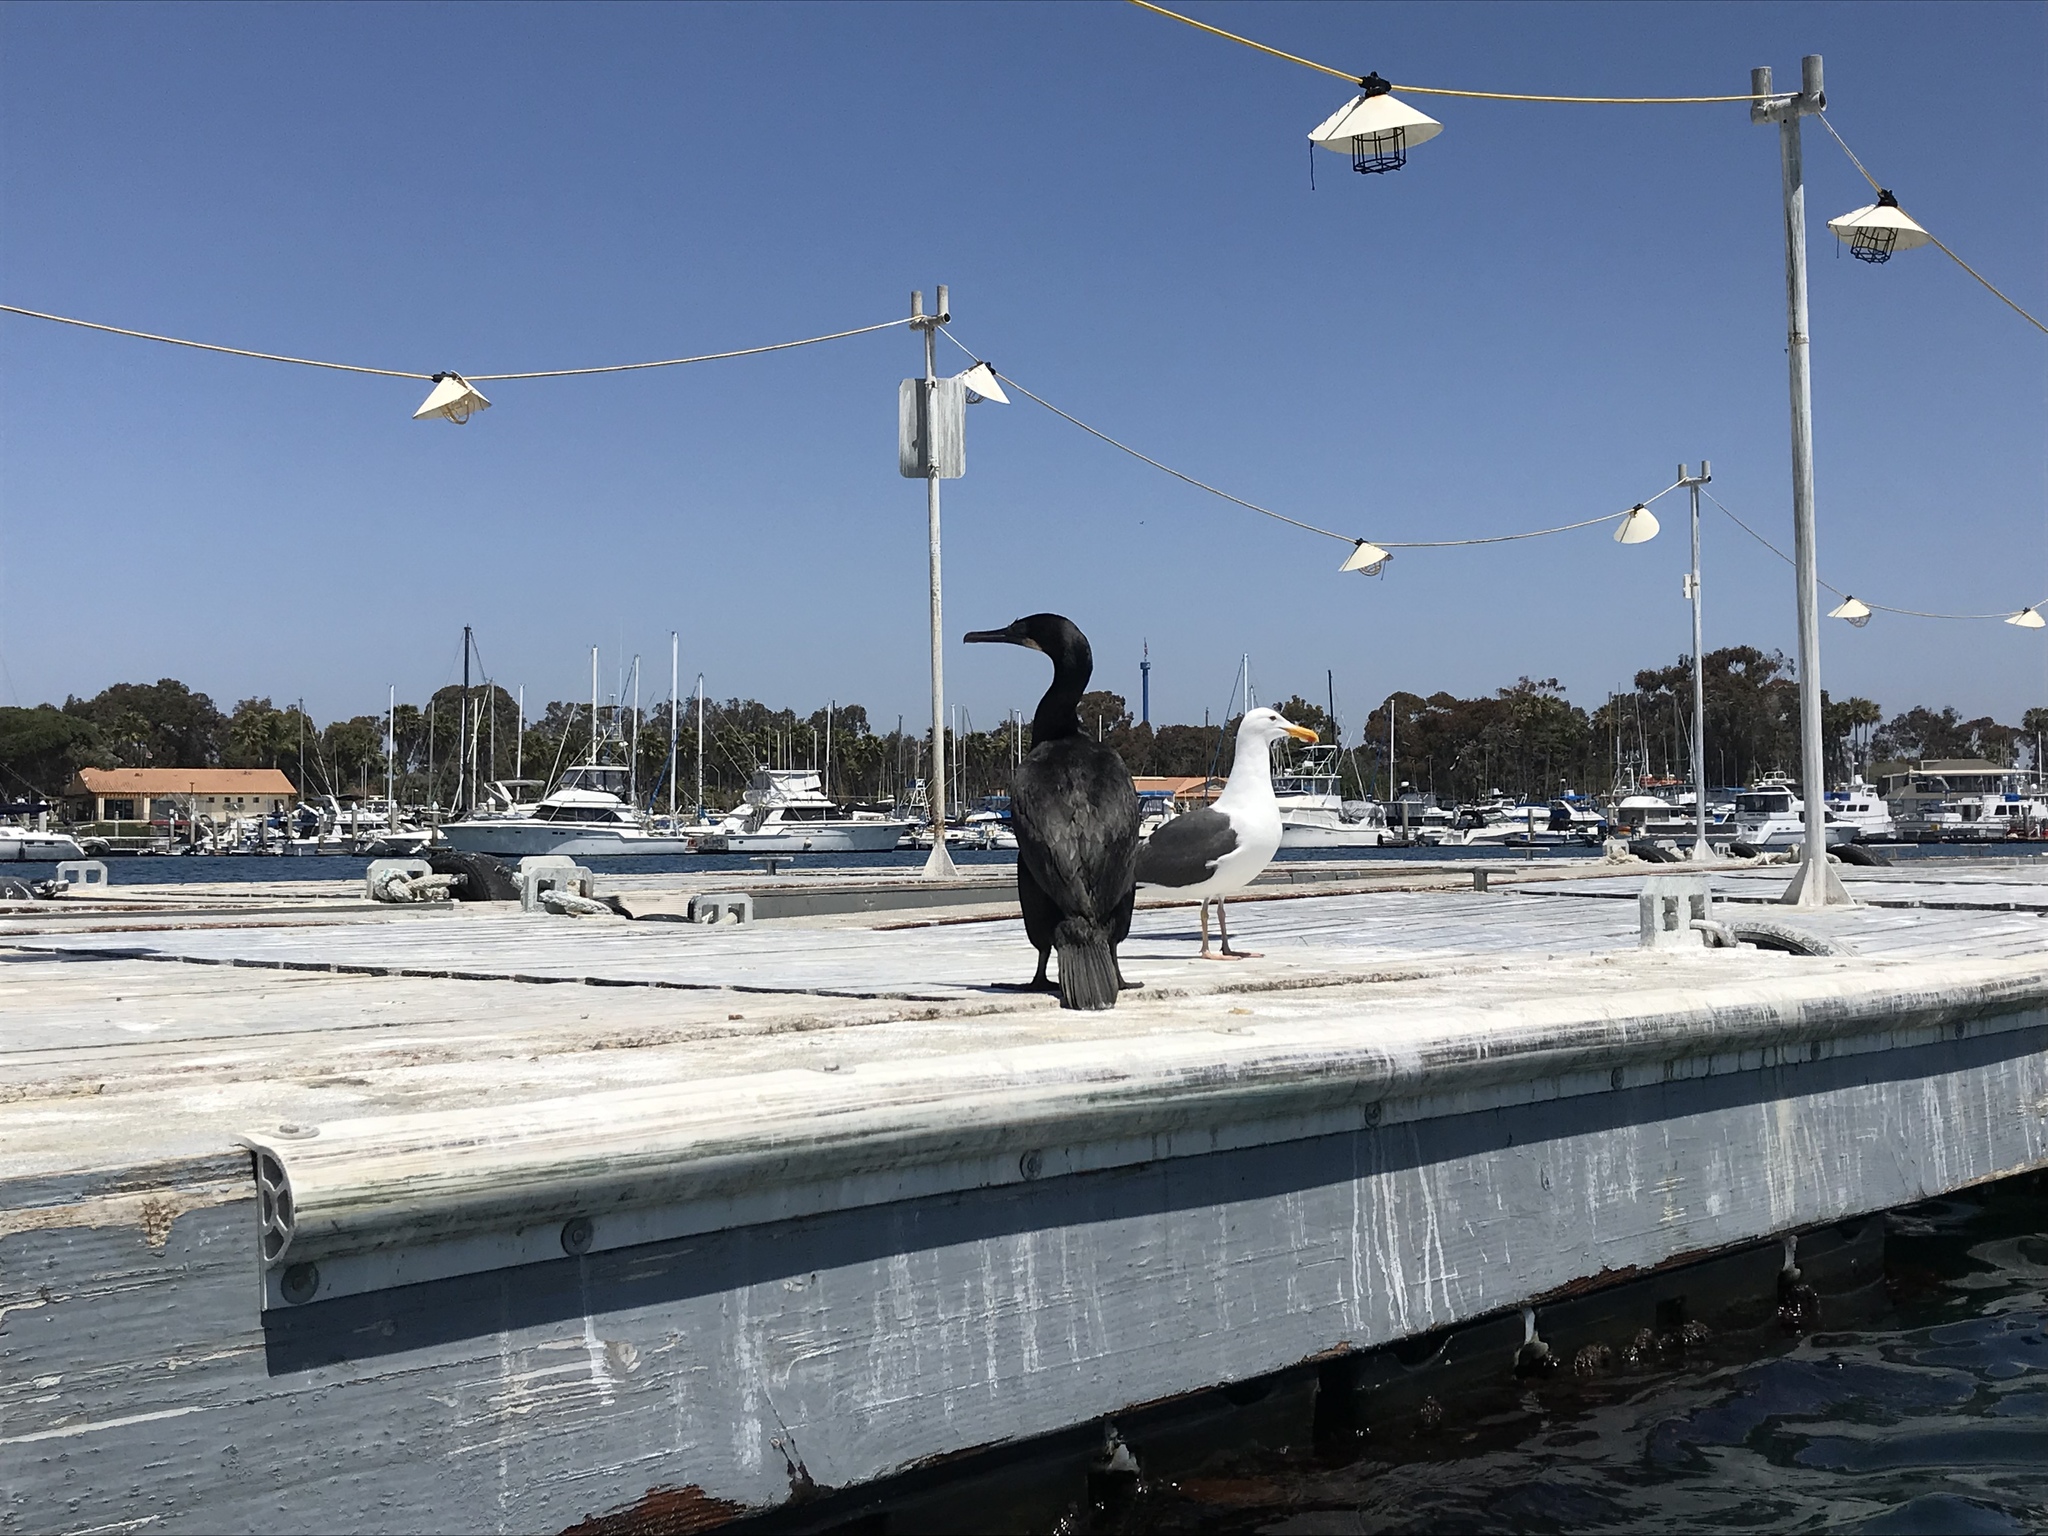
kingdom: Animalia
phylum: Chordata
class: Aves
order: Suliformes
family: Phalacrocoracidae
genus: Urile
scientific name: Urile penicillatus
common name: Brandt's cormorant
